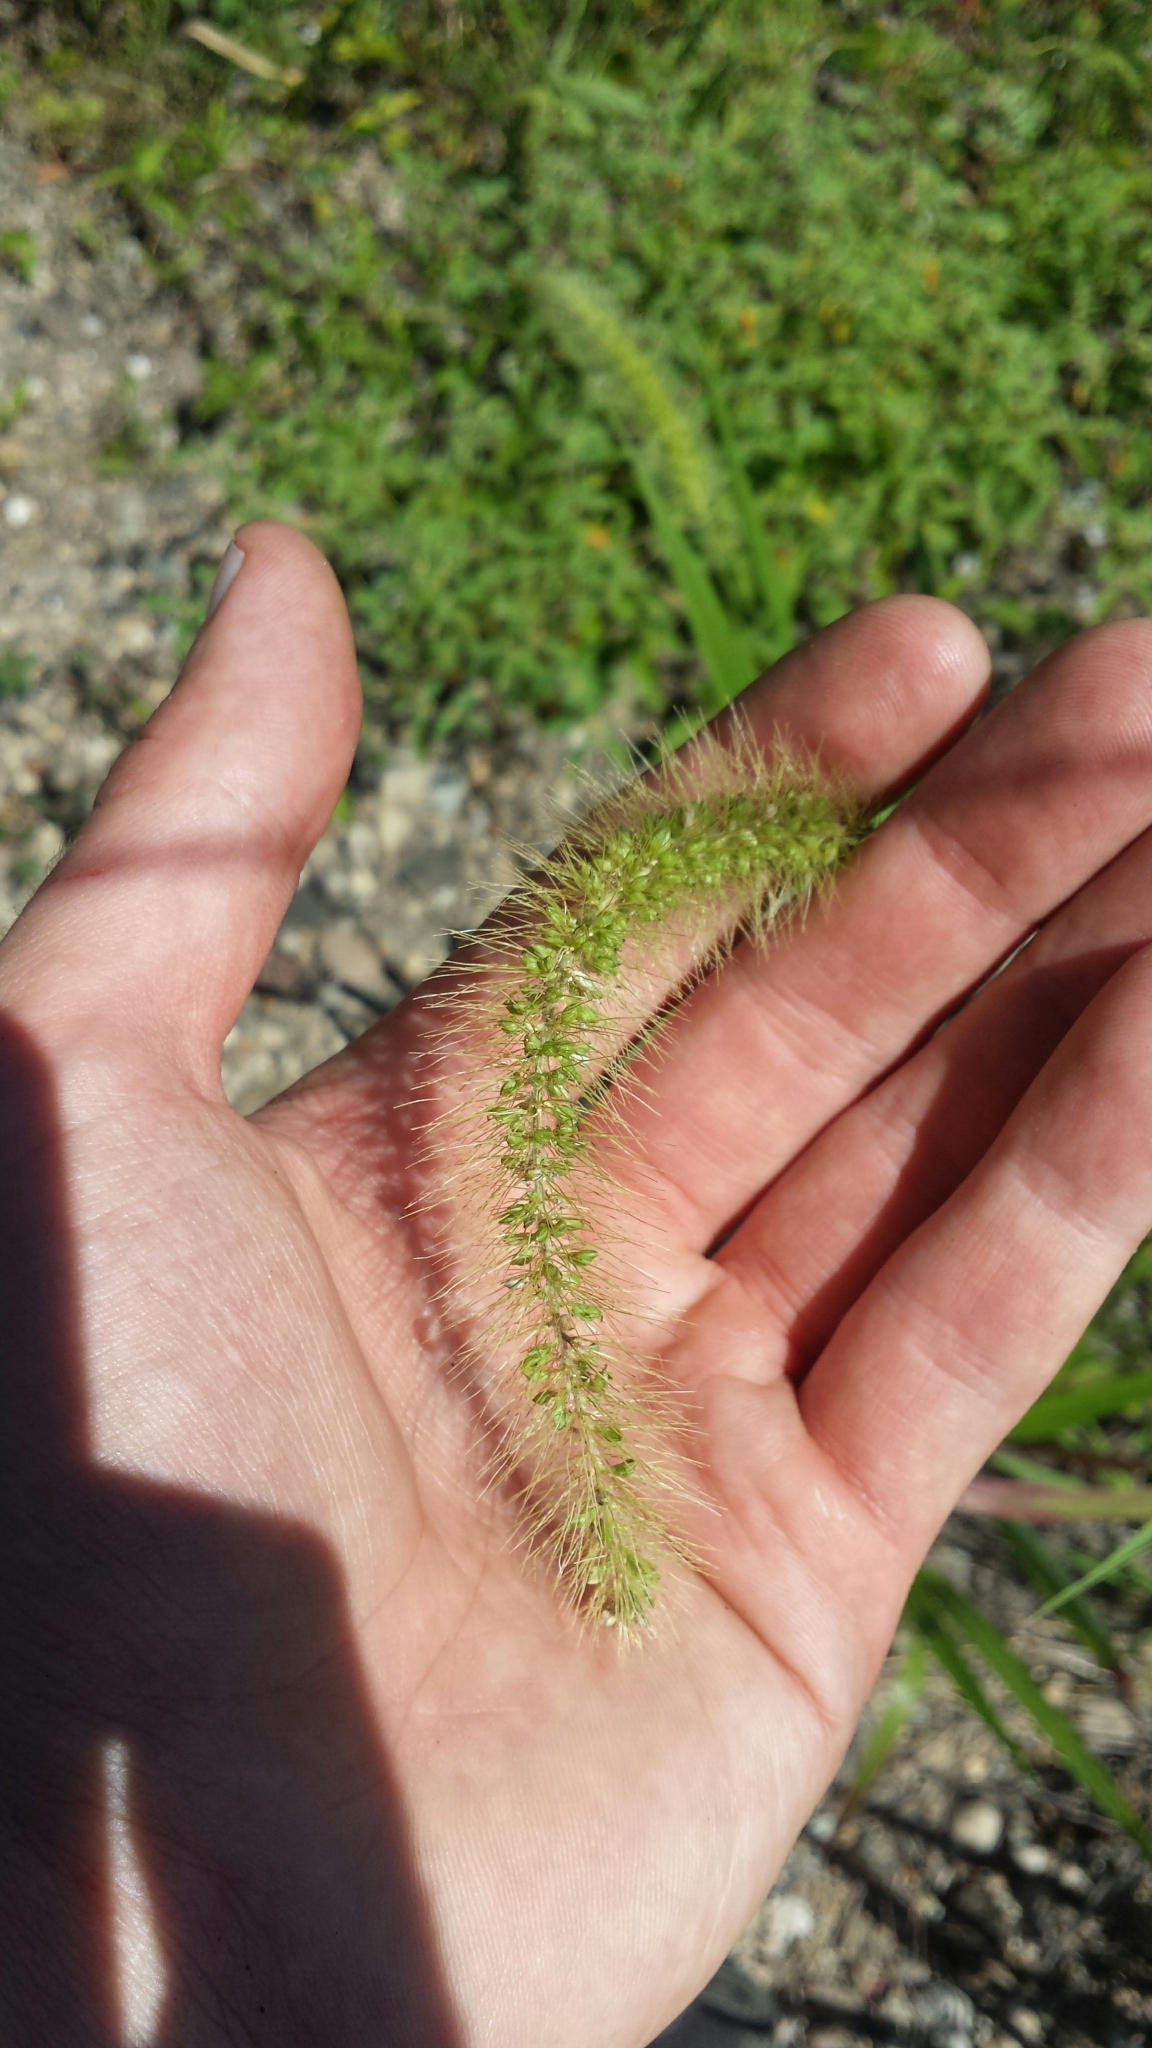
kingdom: Plantae
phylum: Tracheophyta
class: Liliopsida
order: Poales
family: Poaceae
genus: Setaria
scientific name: Setaria faberi
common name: Nodding bristle-grass
